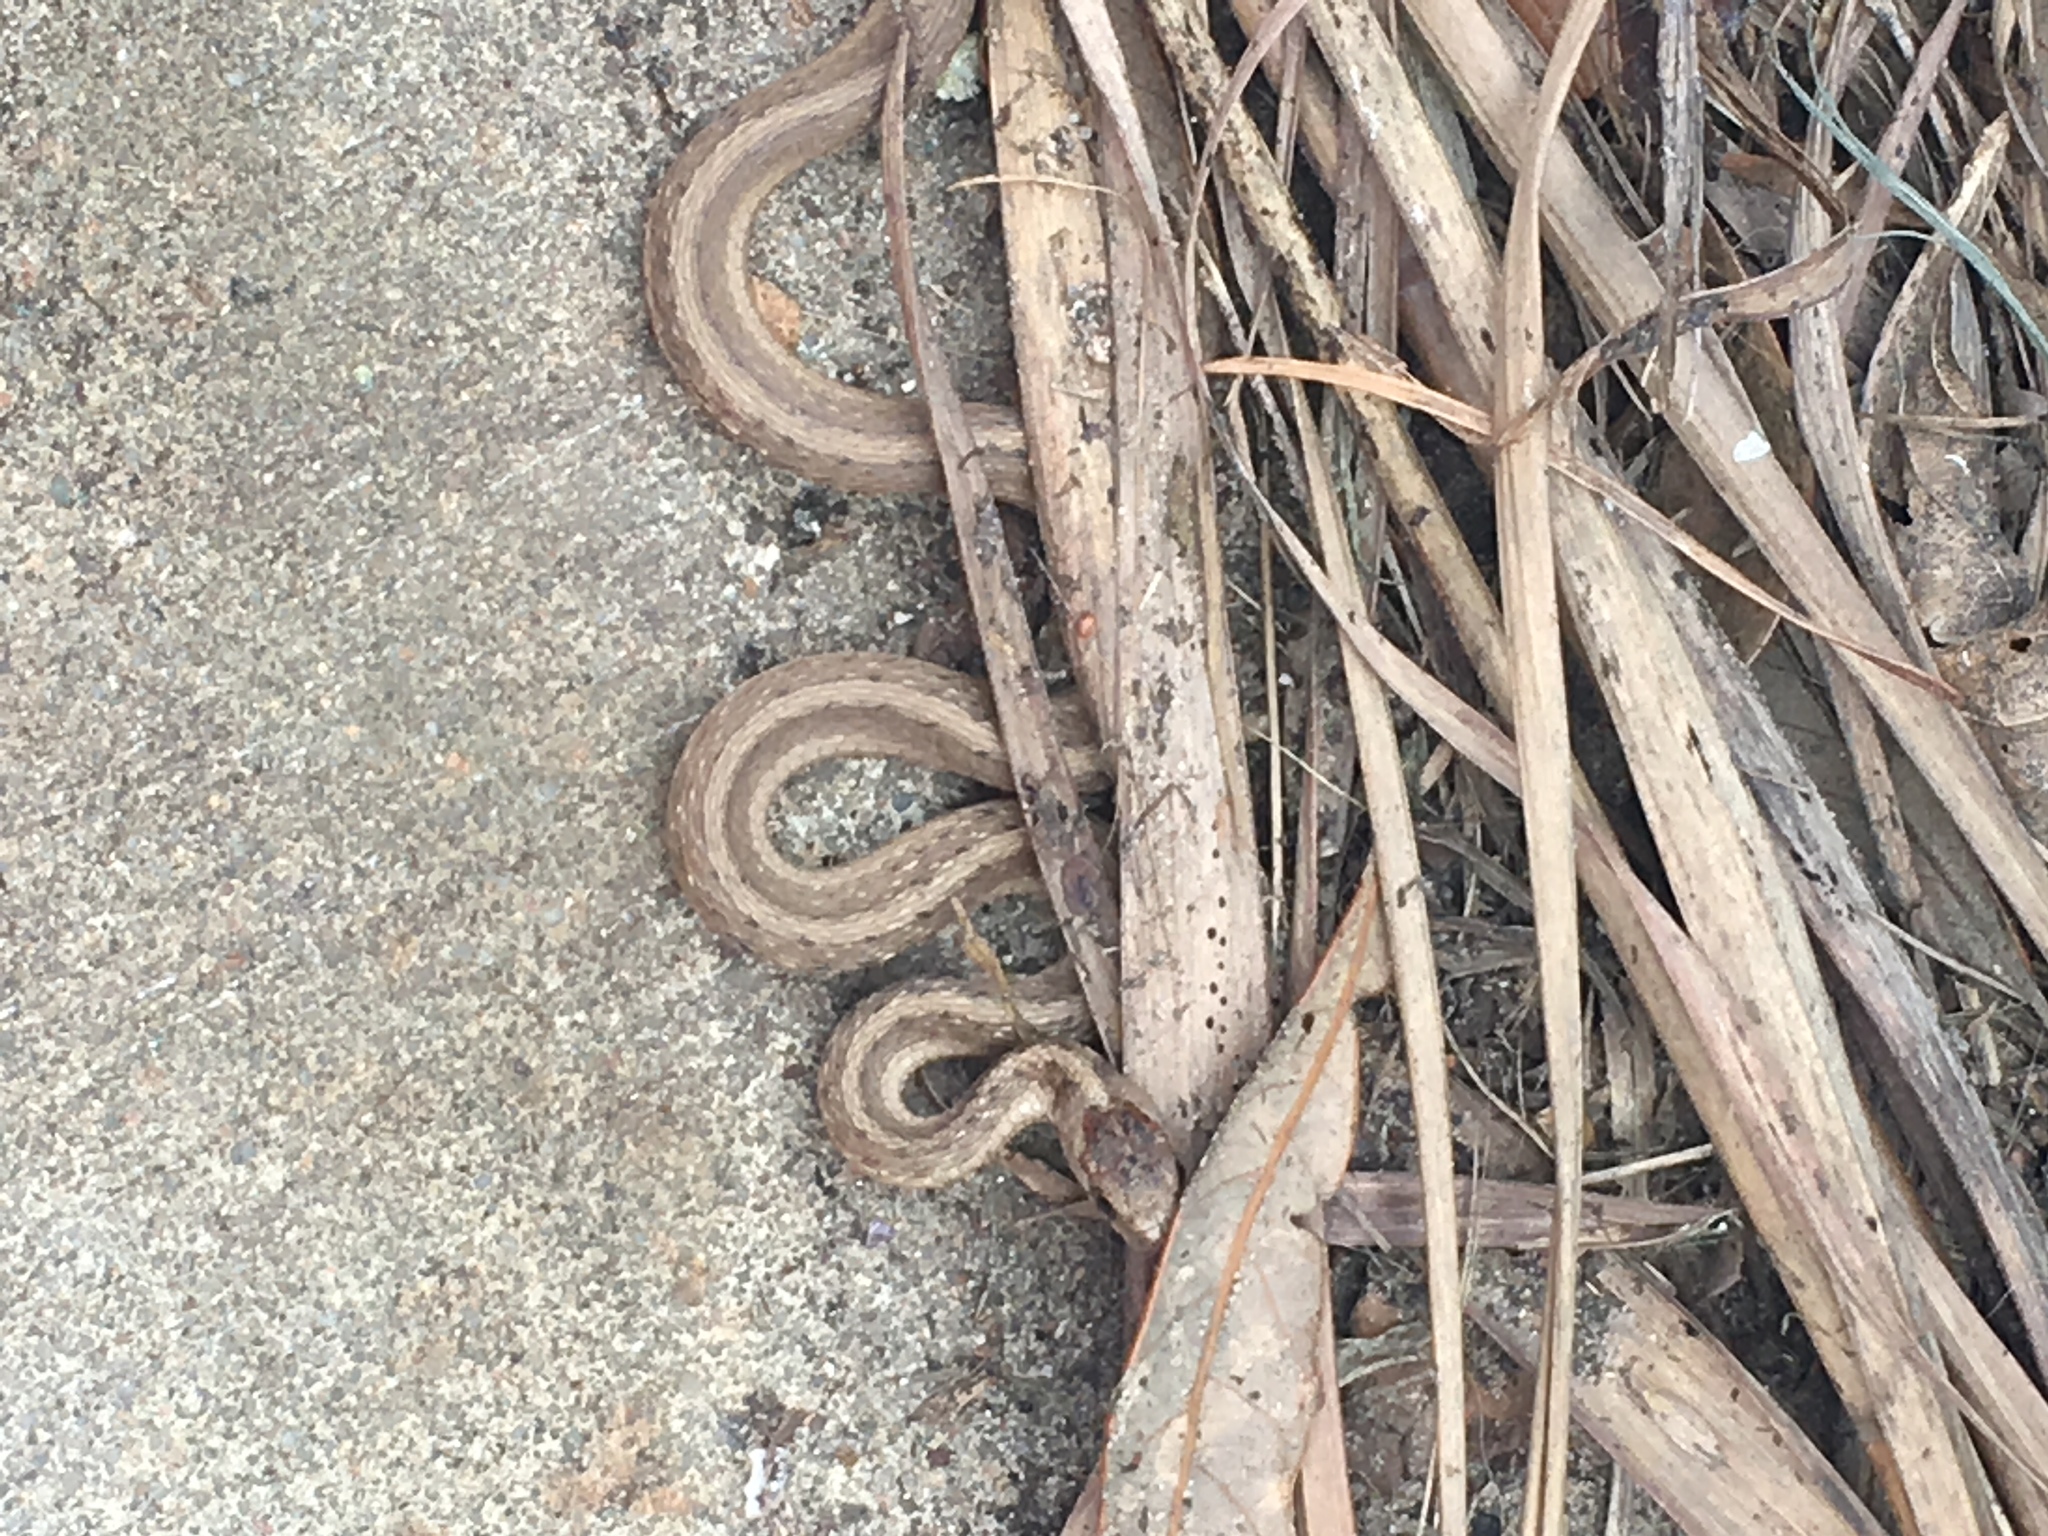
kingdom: Animalia
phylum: Chordata
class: Squamata
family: Colubridae
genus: Storeria
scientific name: Storeria dekayi
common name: (dekay’s) brown snake
